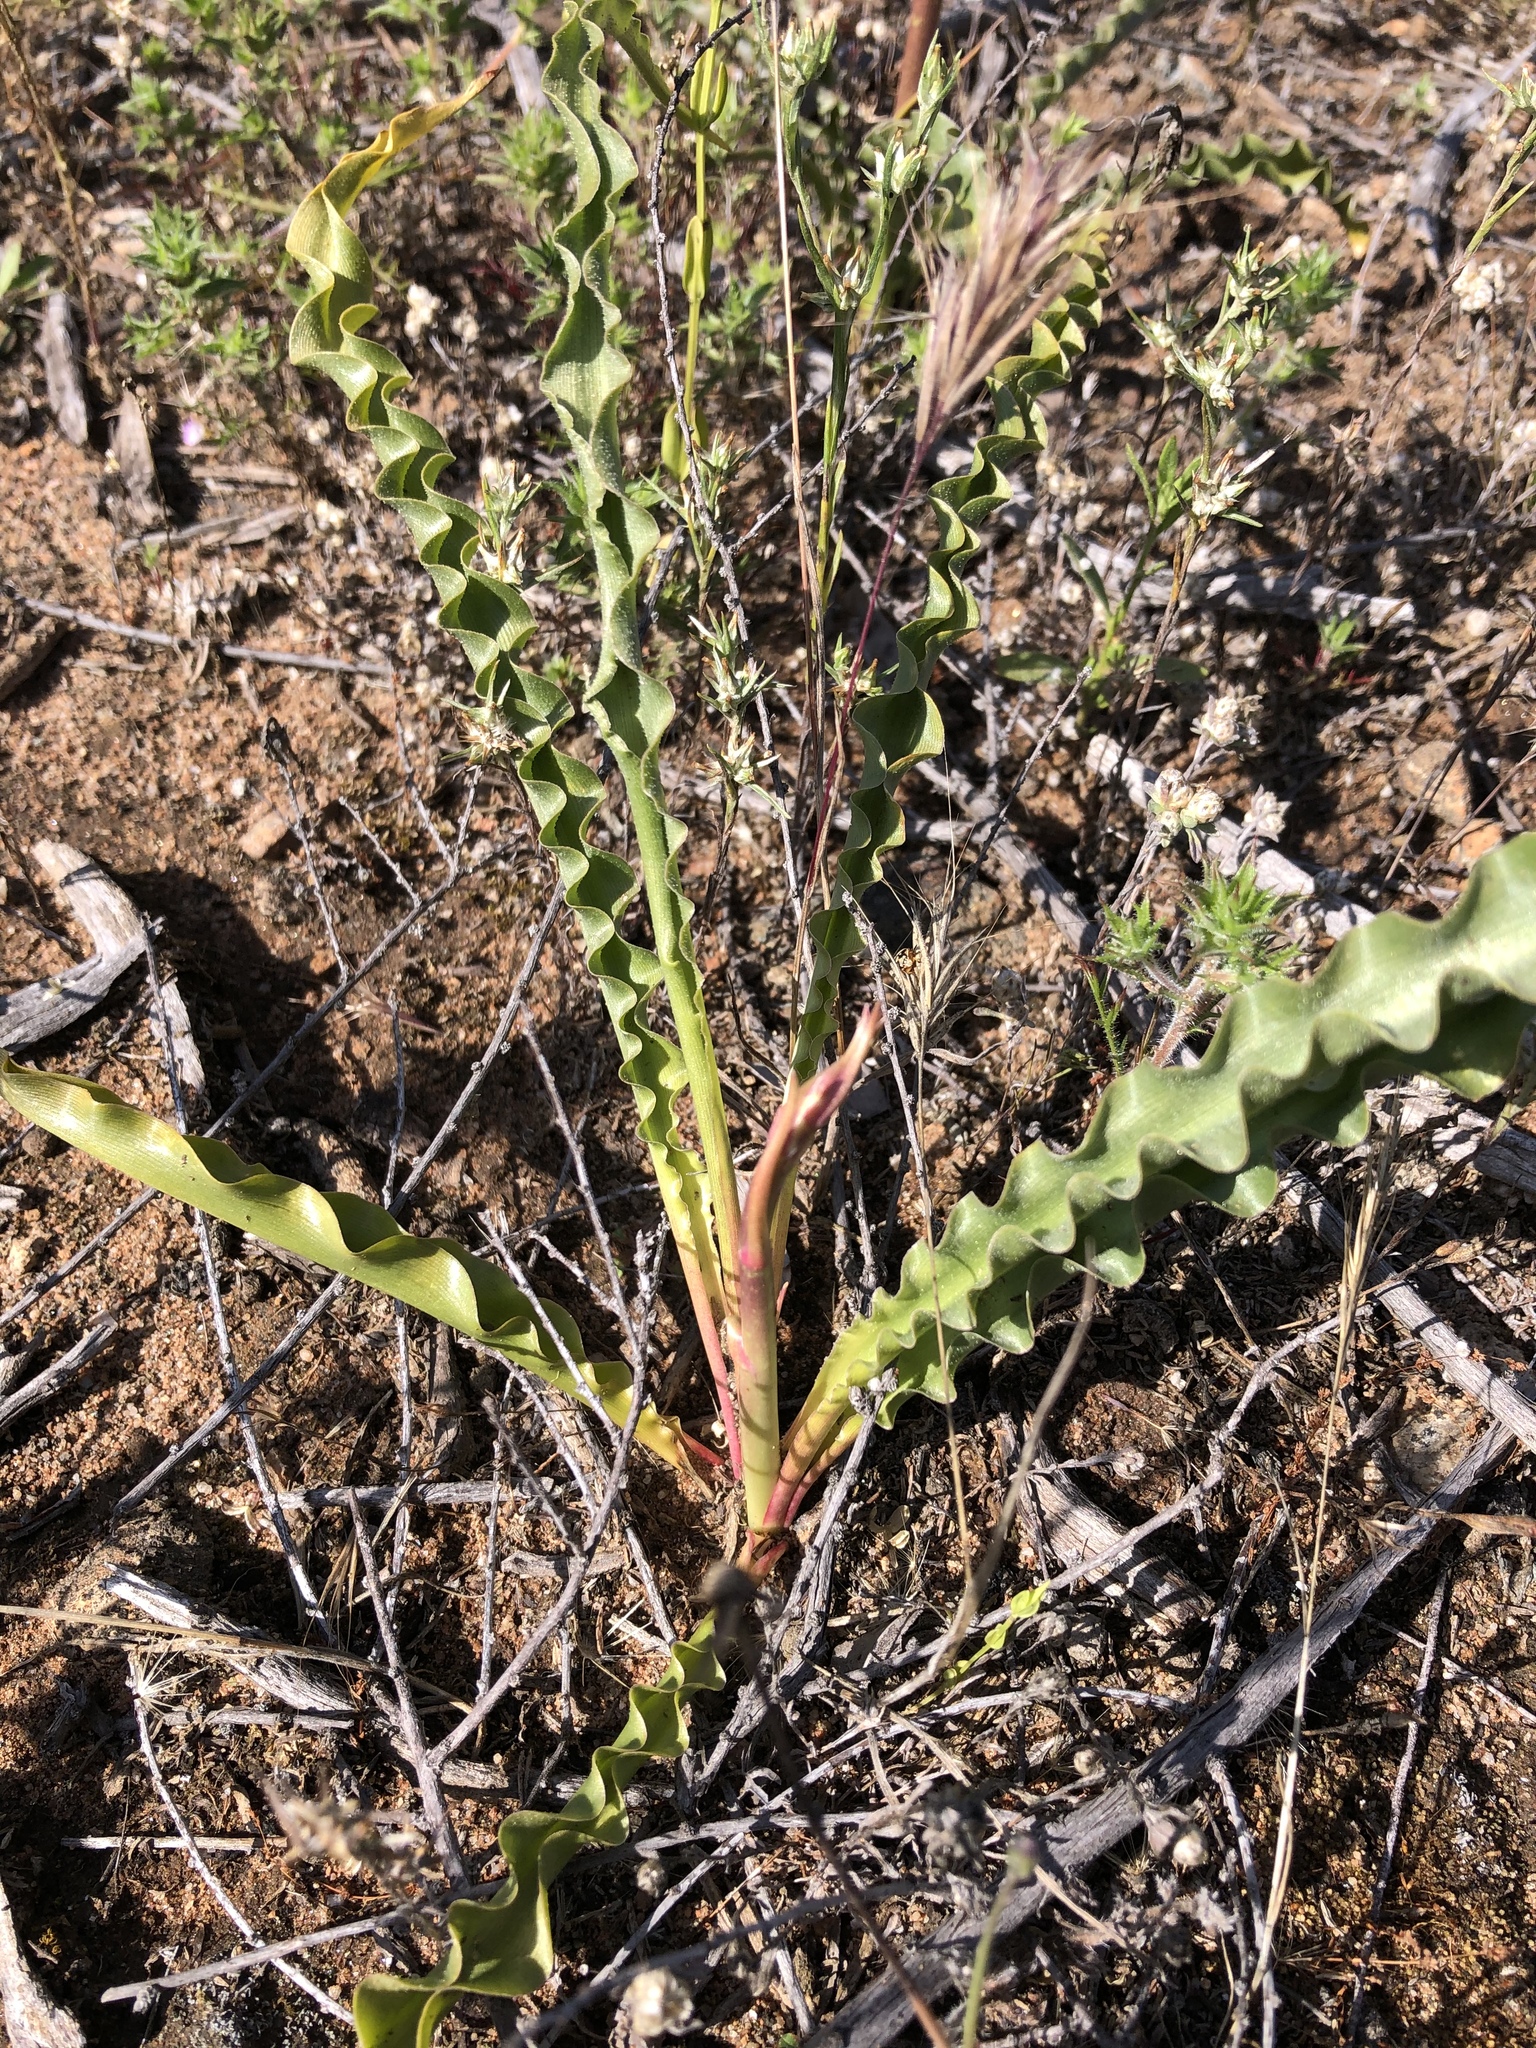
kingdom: Plantae
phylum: Tracheophyta
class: Liliopsida
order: Asparagales
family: Asparagaceae
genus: Hooveria
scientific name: Hooveria parviflora
